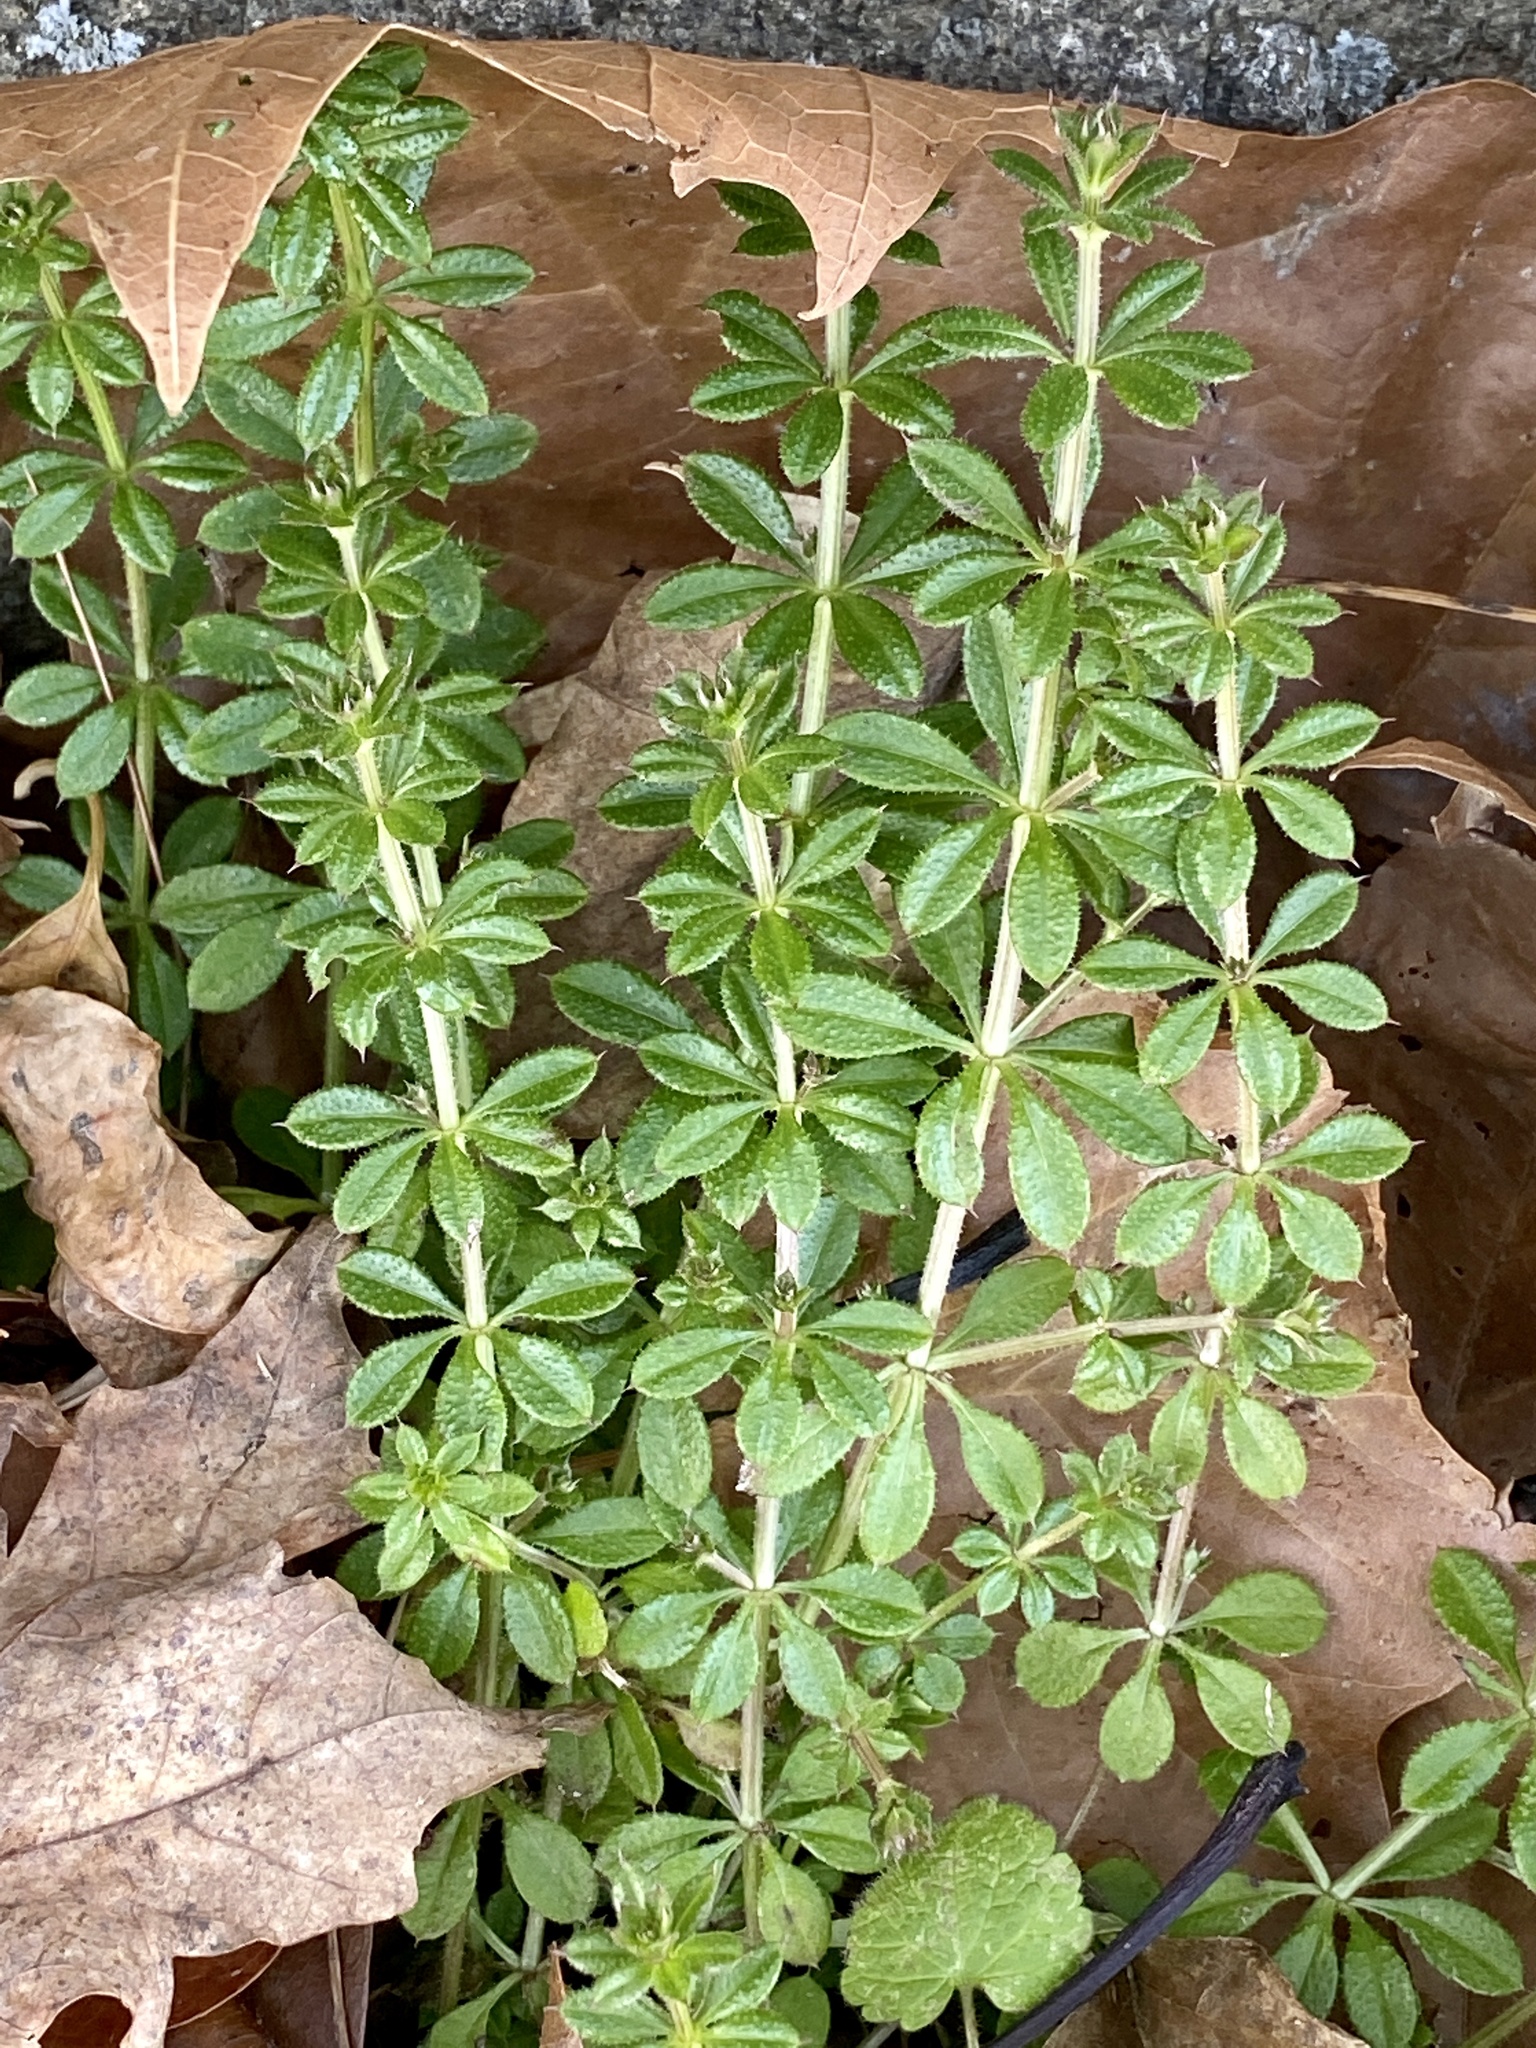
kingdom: Plantae
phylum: Tracheophyta
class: Magnoliopsida
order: Gentianales
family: Rubiaceae
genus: Galium
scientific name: Galium aparine
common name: Cleavers
